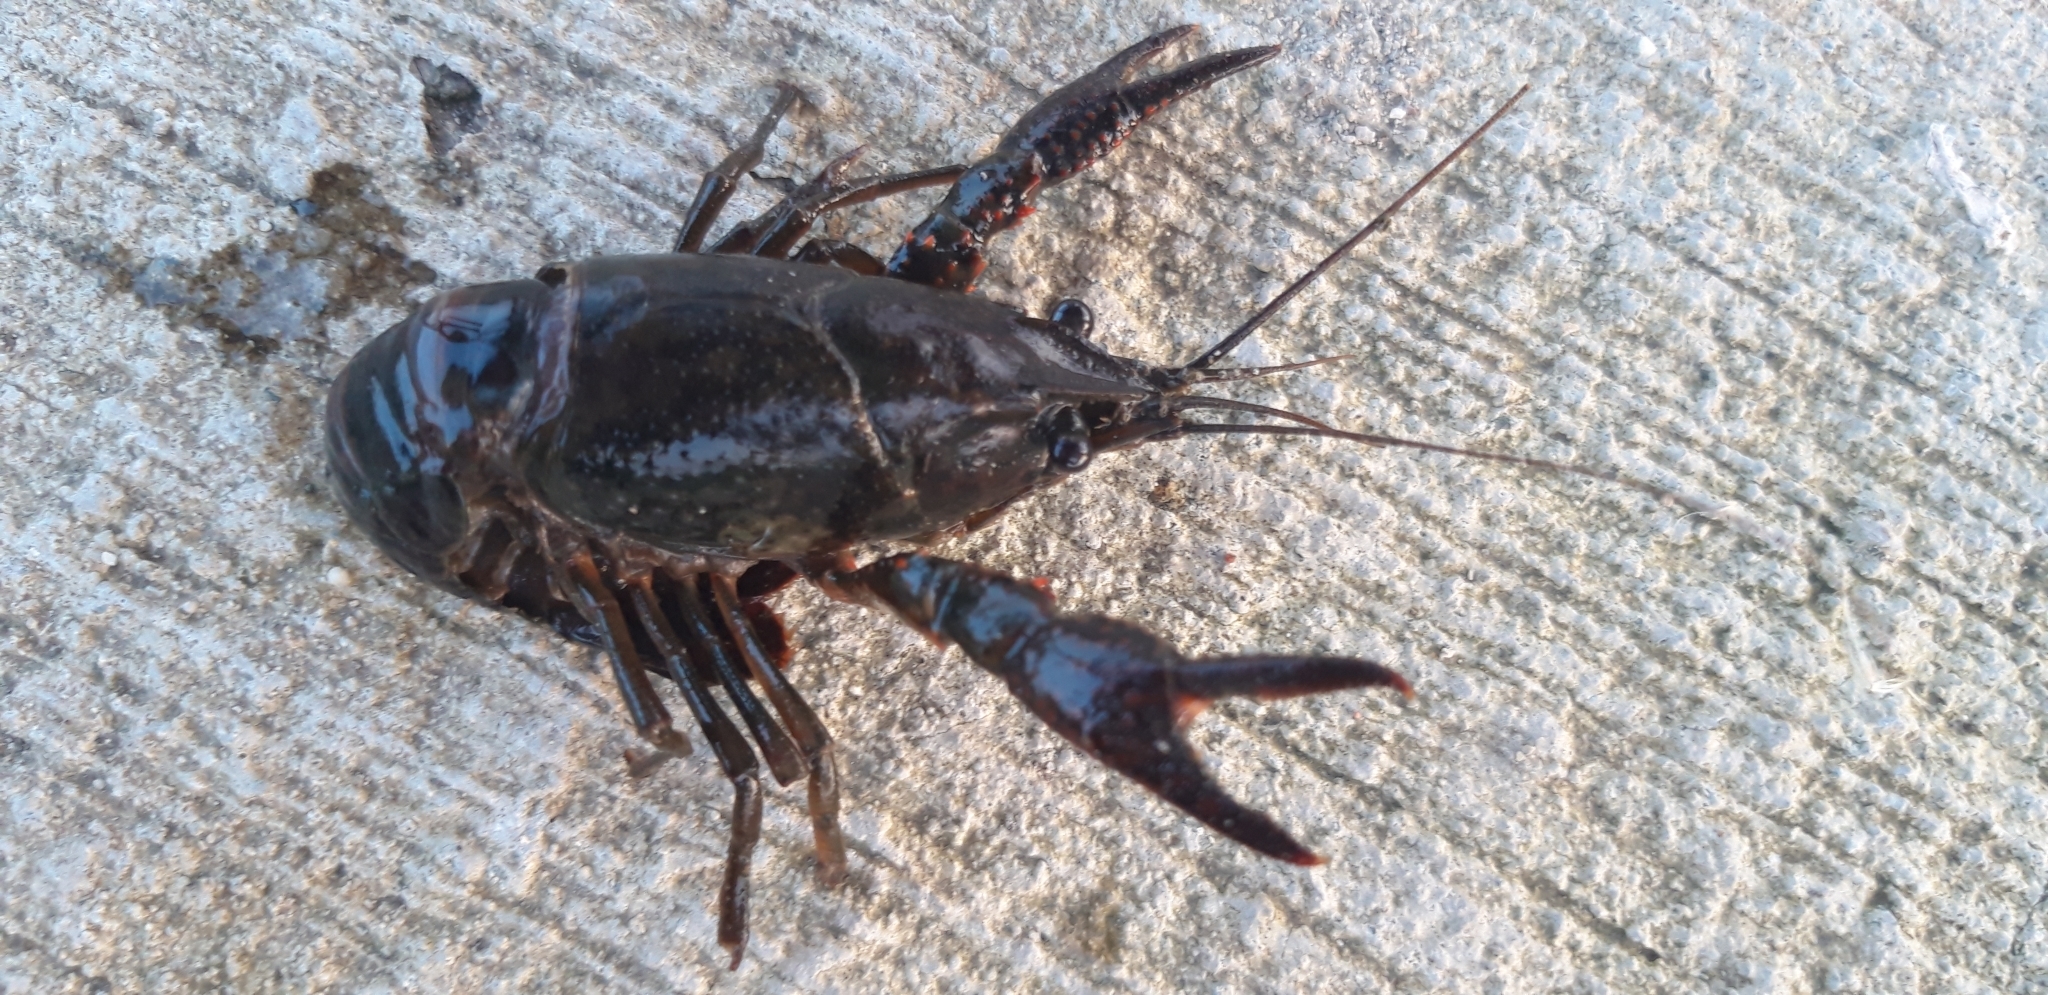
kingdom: Animalia
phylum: Arthropoda
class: Malacostraca
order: Decapoda
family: Cambaridae
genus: Procambarus
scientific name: Procambarus clarkii
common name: Red swamp crayfish
